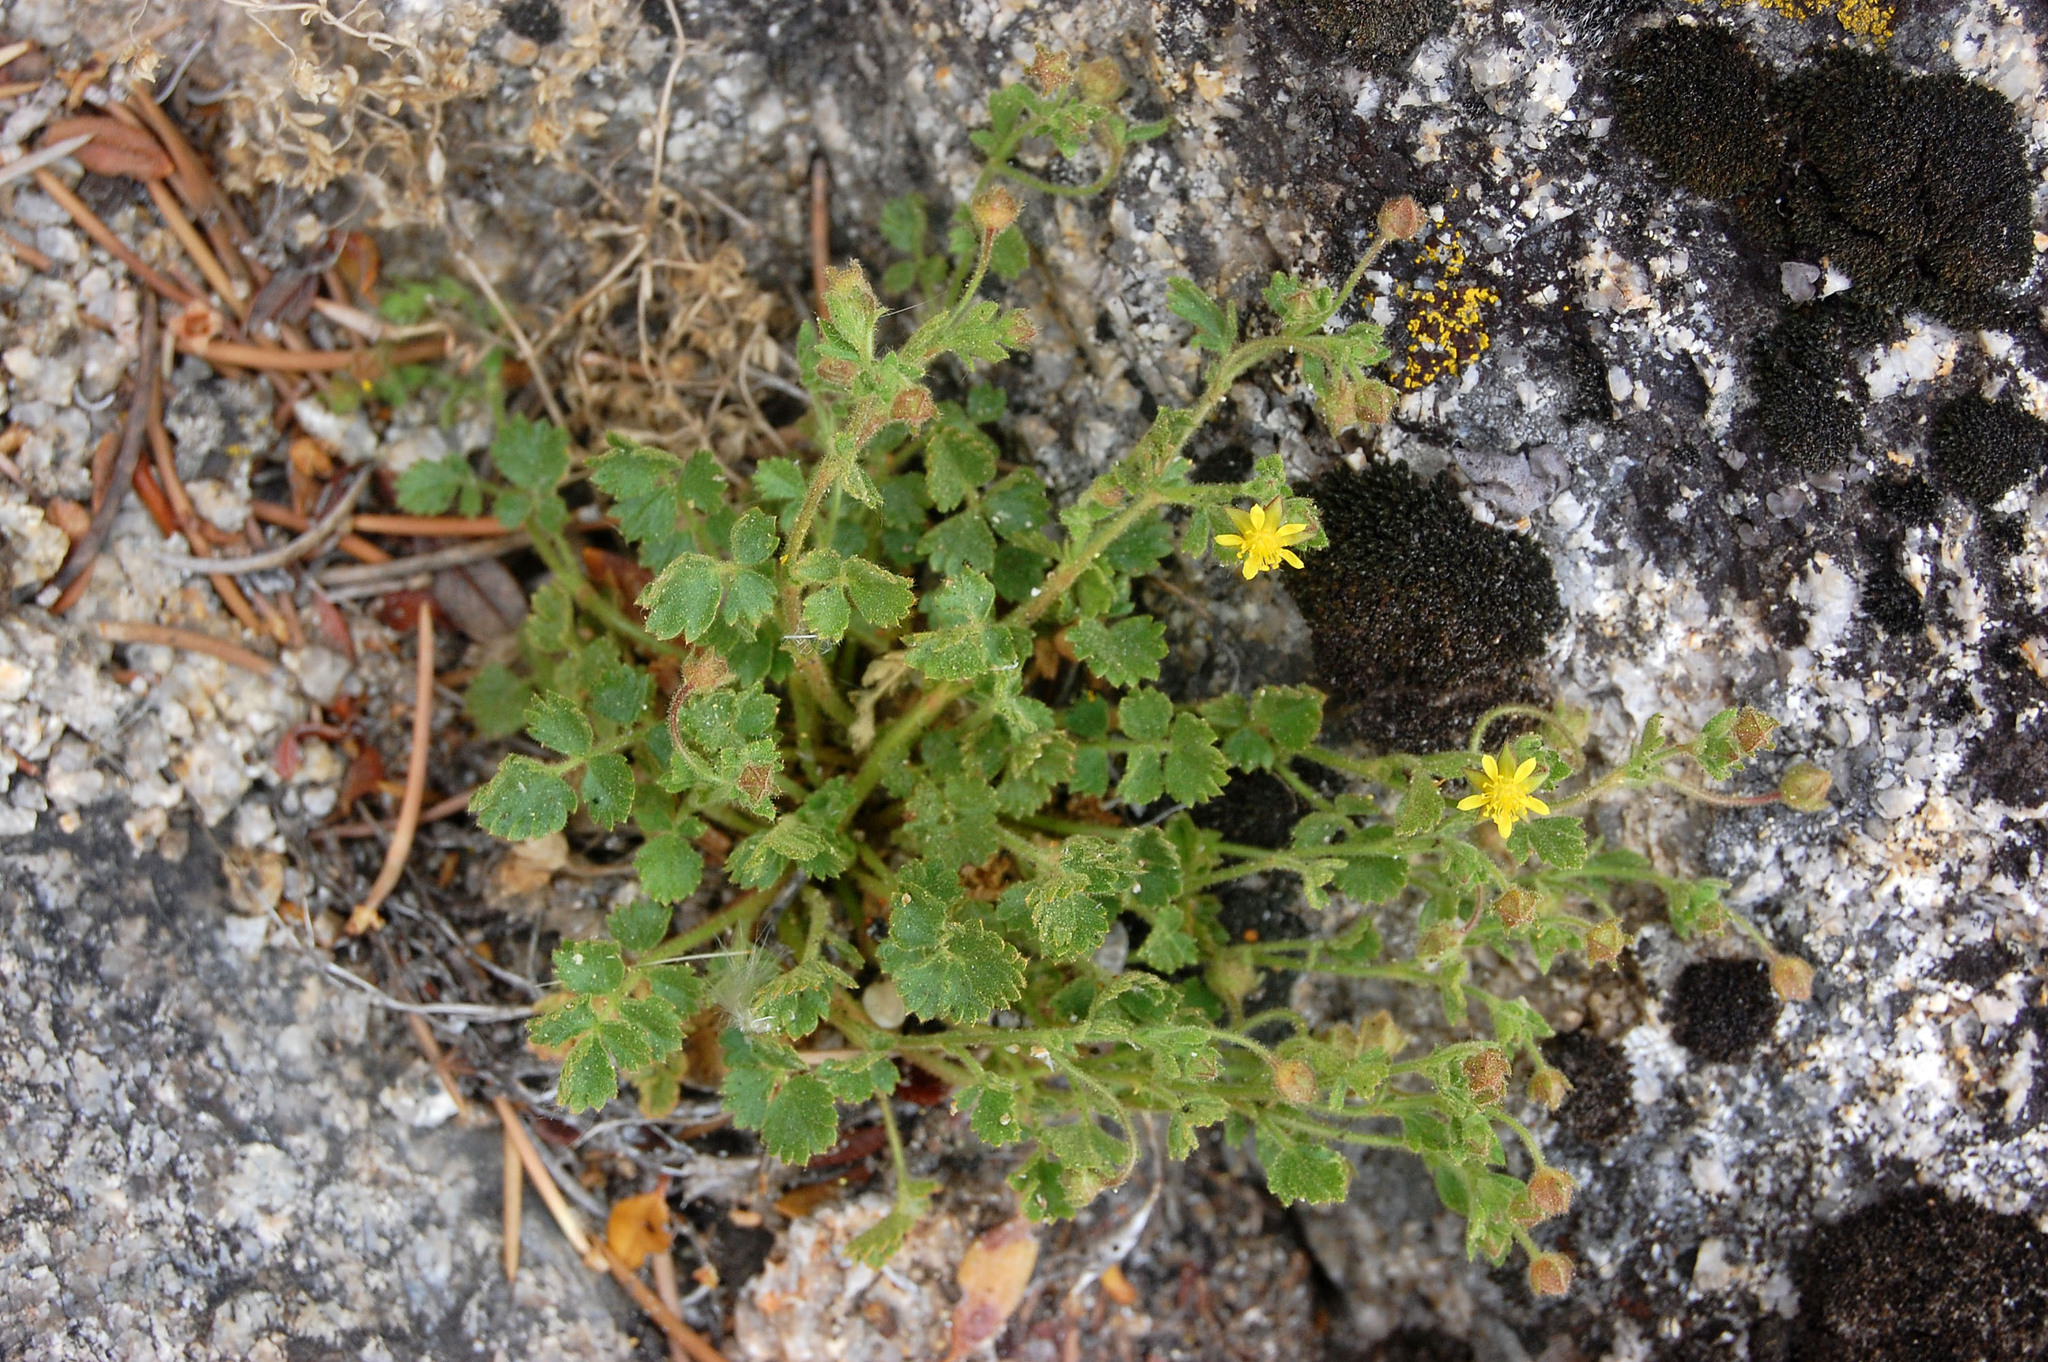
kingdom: Plantae
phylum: Tracheophyta
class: Magnoliopsida
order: Rosales
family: Rosaceae
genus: Potentilla
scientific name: Potentilla saxosa
